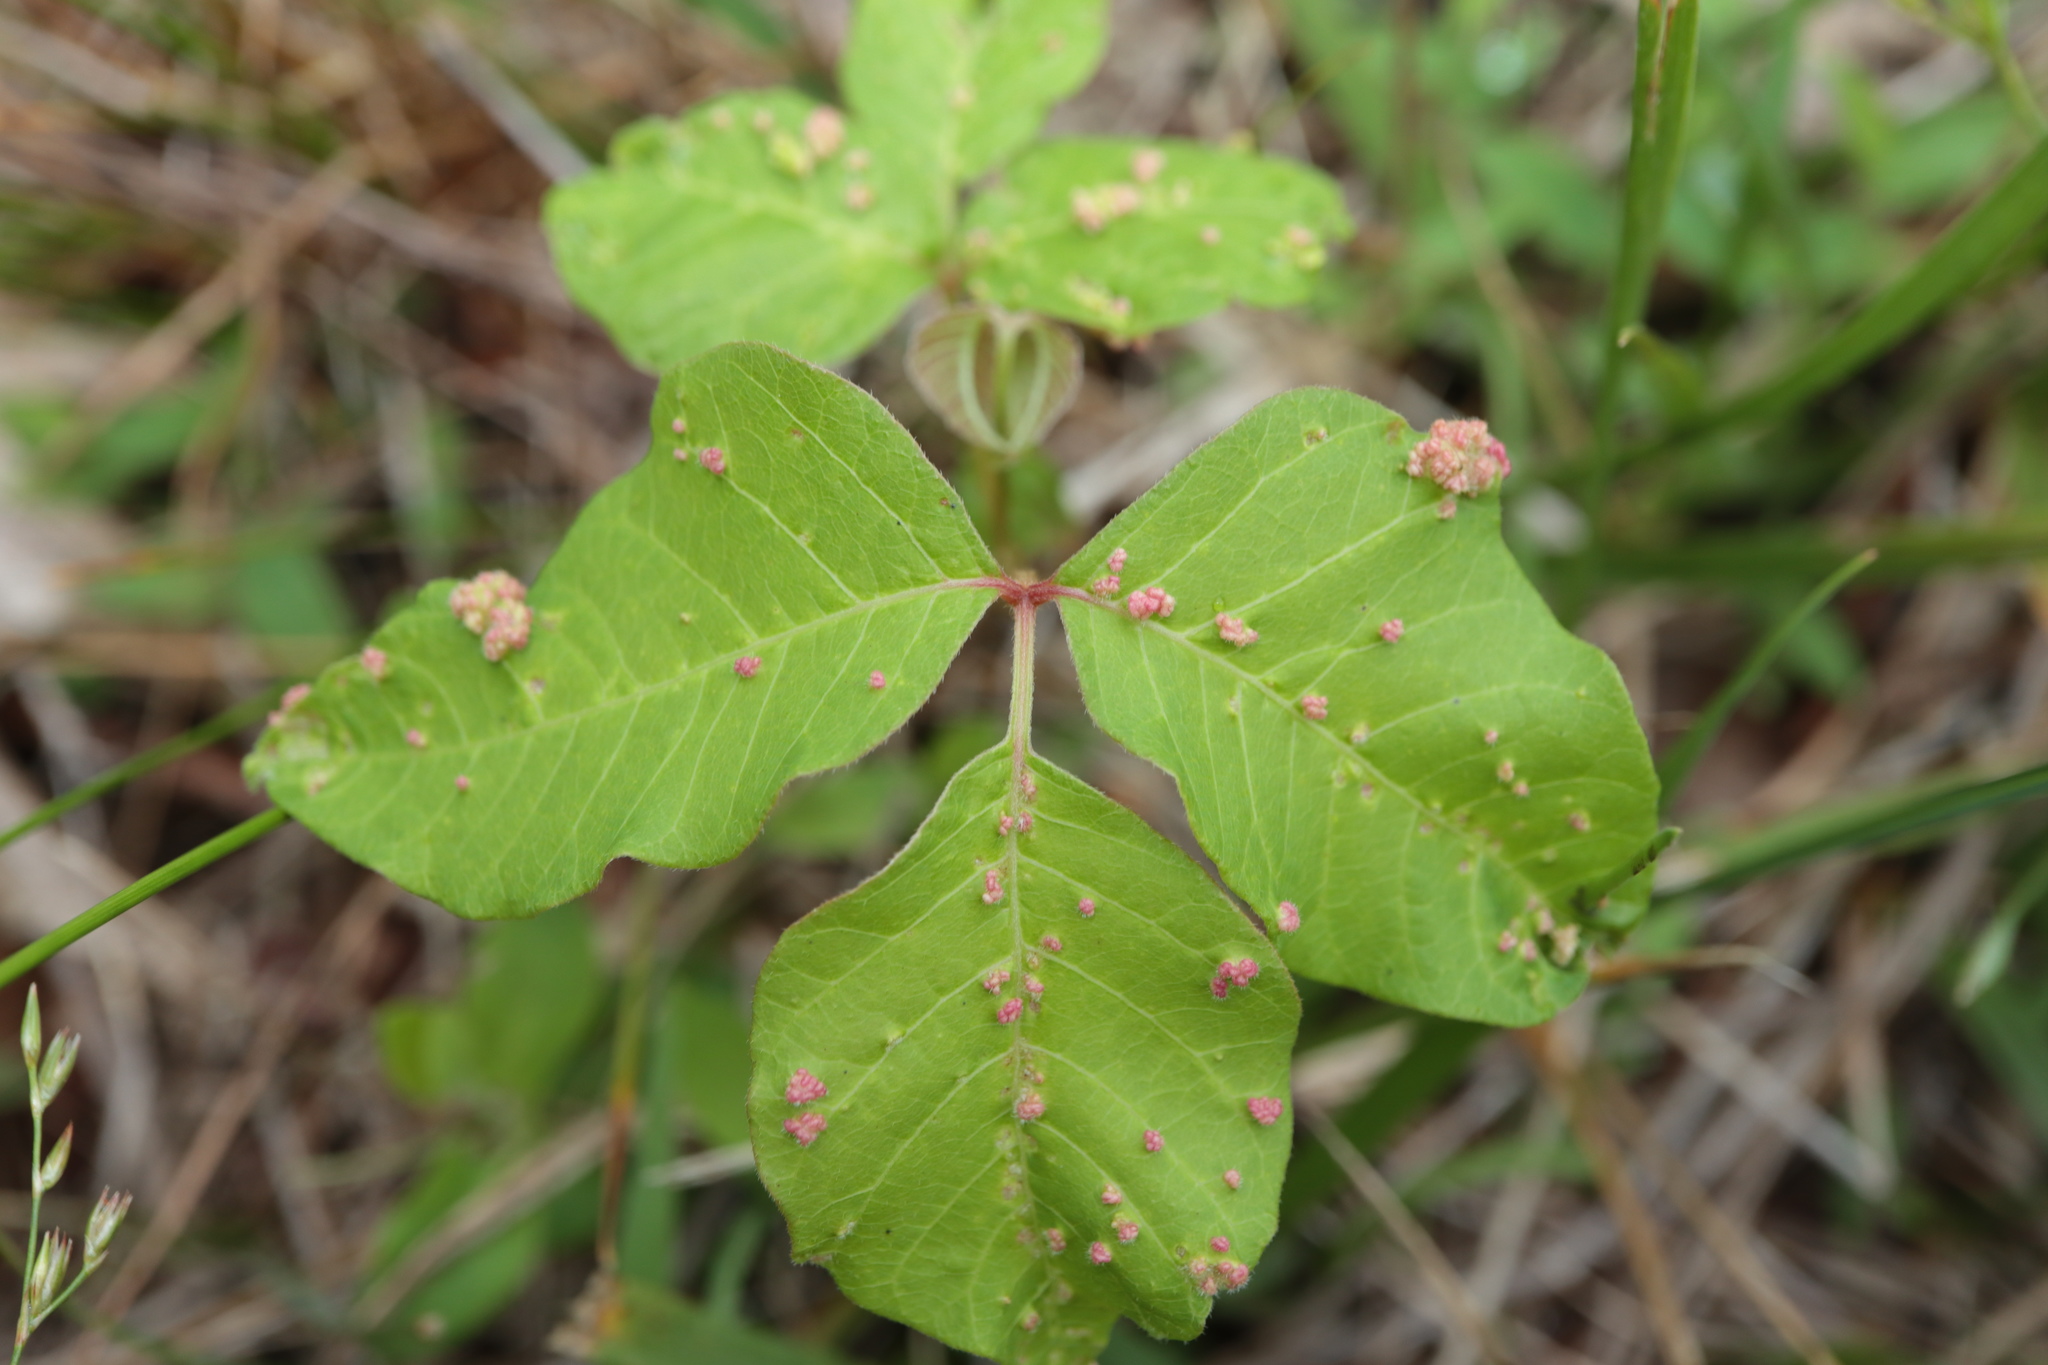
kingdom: Animalia
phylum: Arthropoda
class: Arachnida
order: Trombidiformes
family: Eriophyidae
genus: Aculops
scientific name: Aculops
